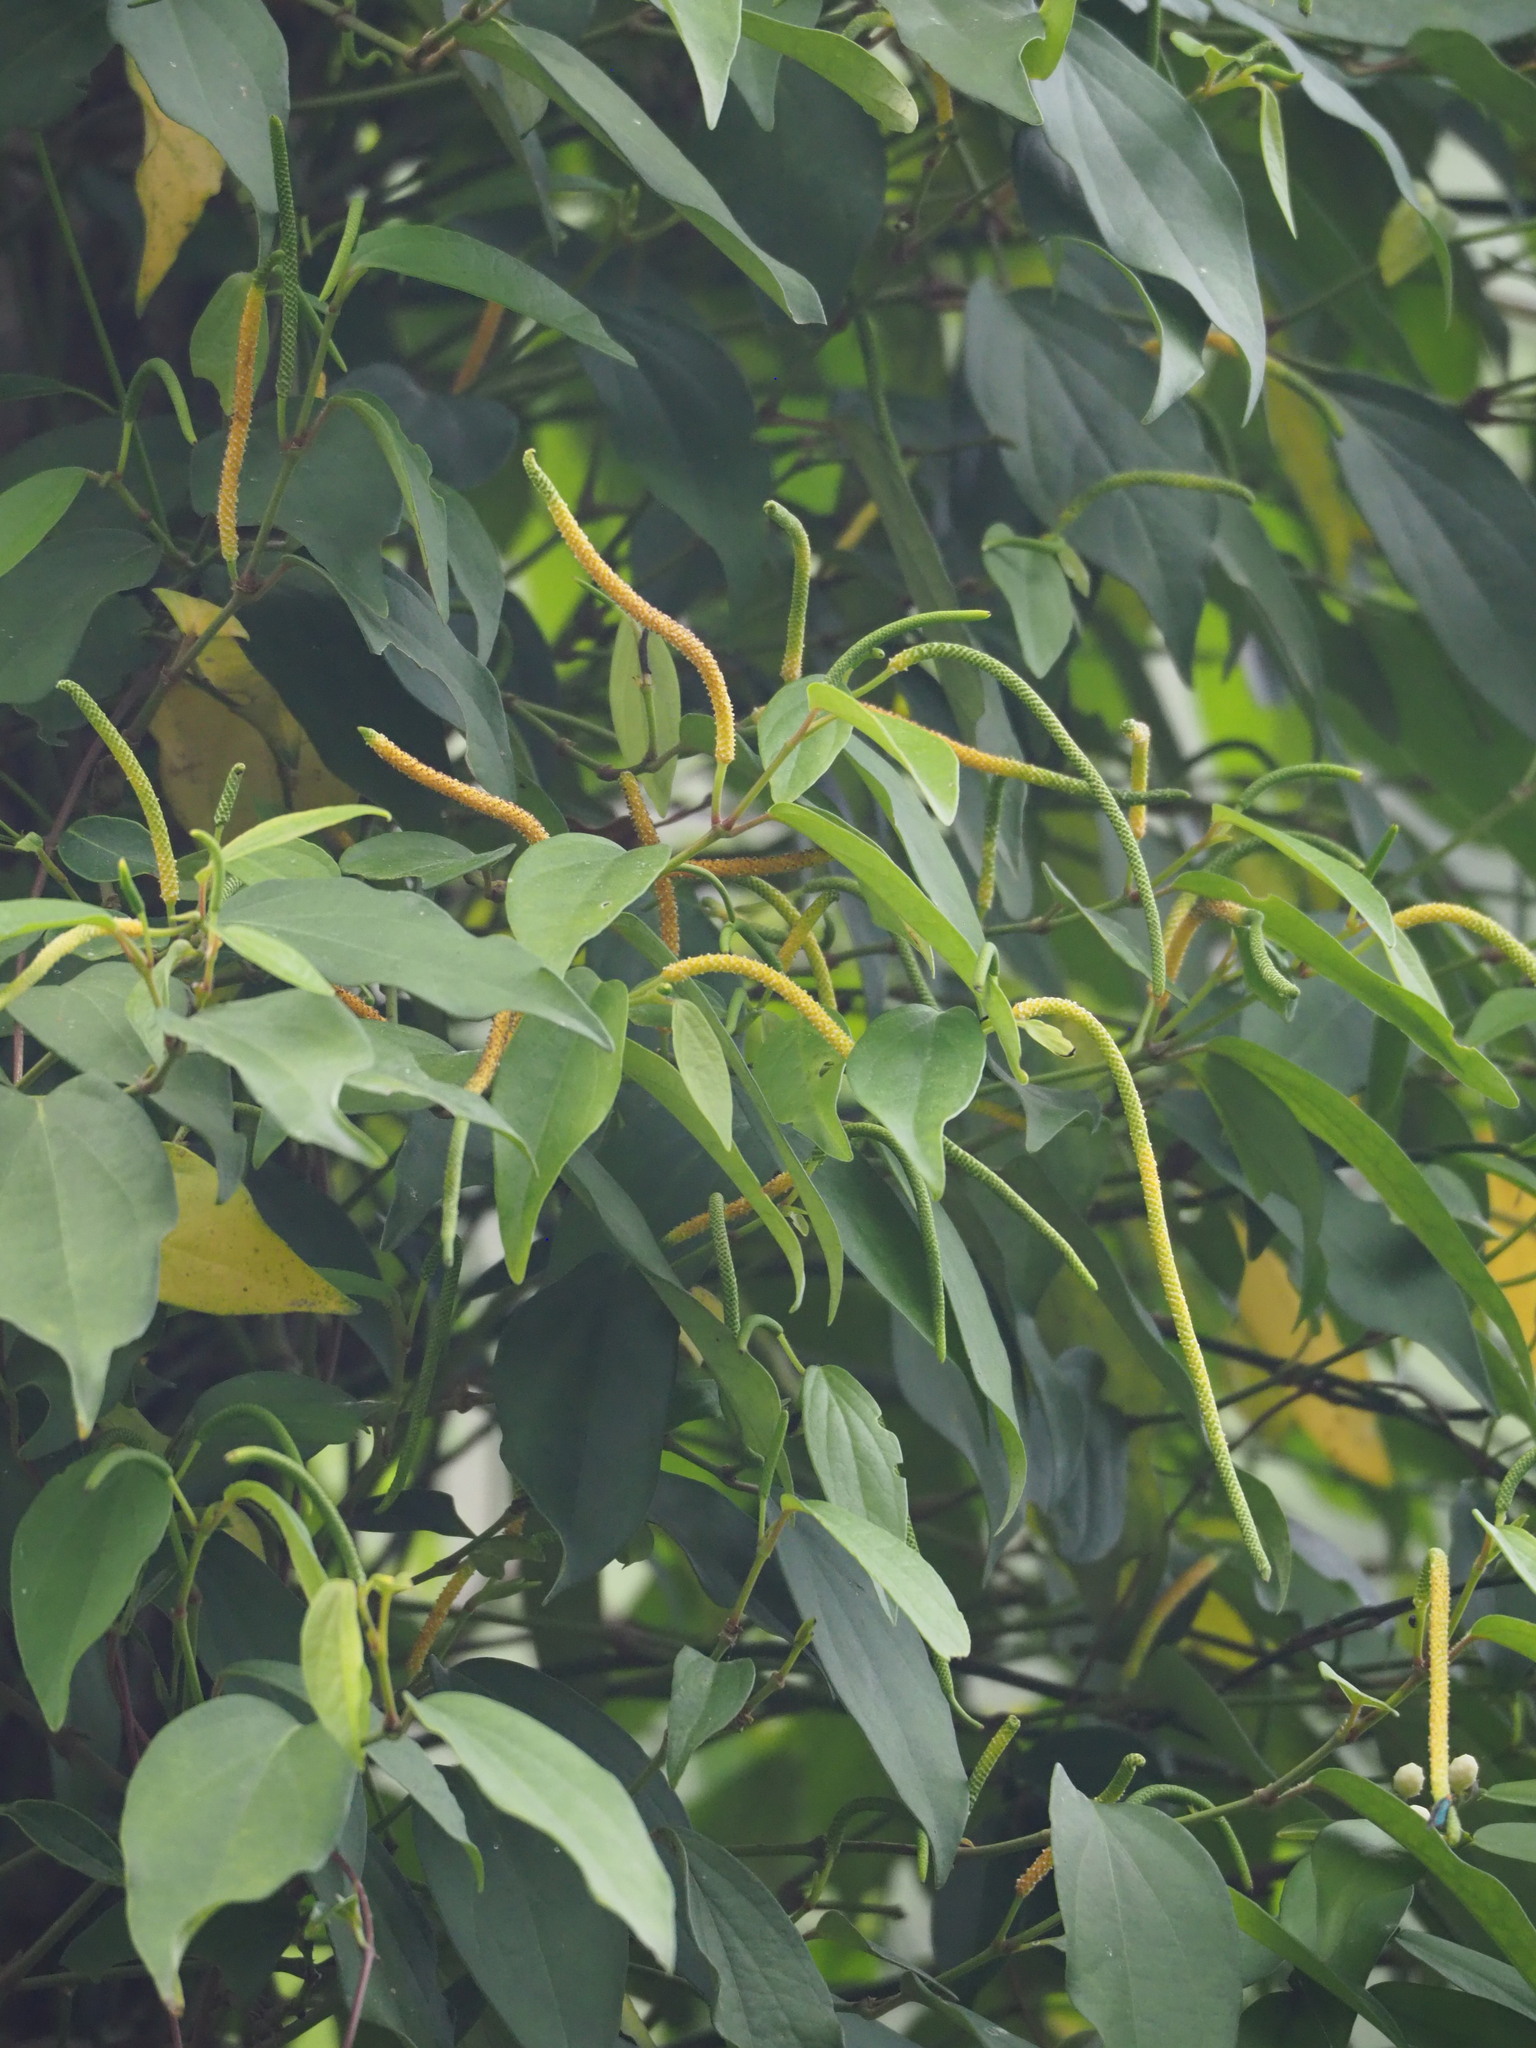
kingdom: Plantae
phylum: Tracheophyta
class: Magnoliopsida
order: Piperales
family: Piperaceae
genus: Piper
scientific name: Piper kadsura
